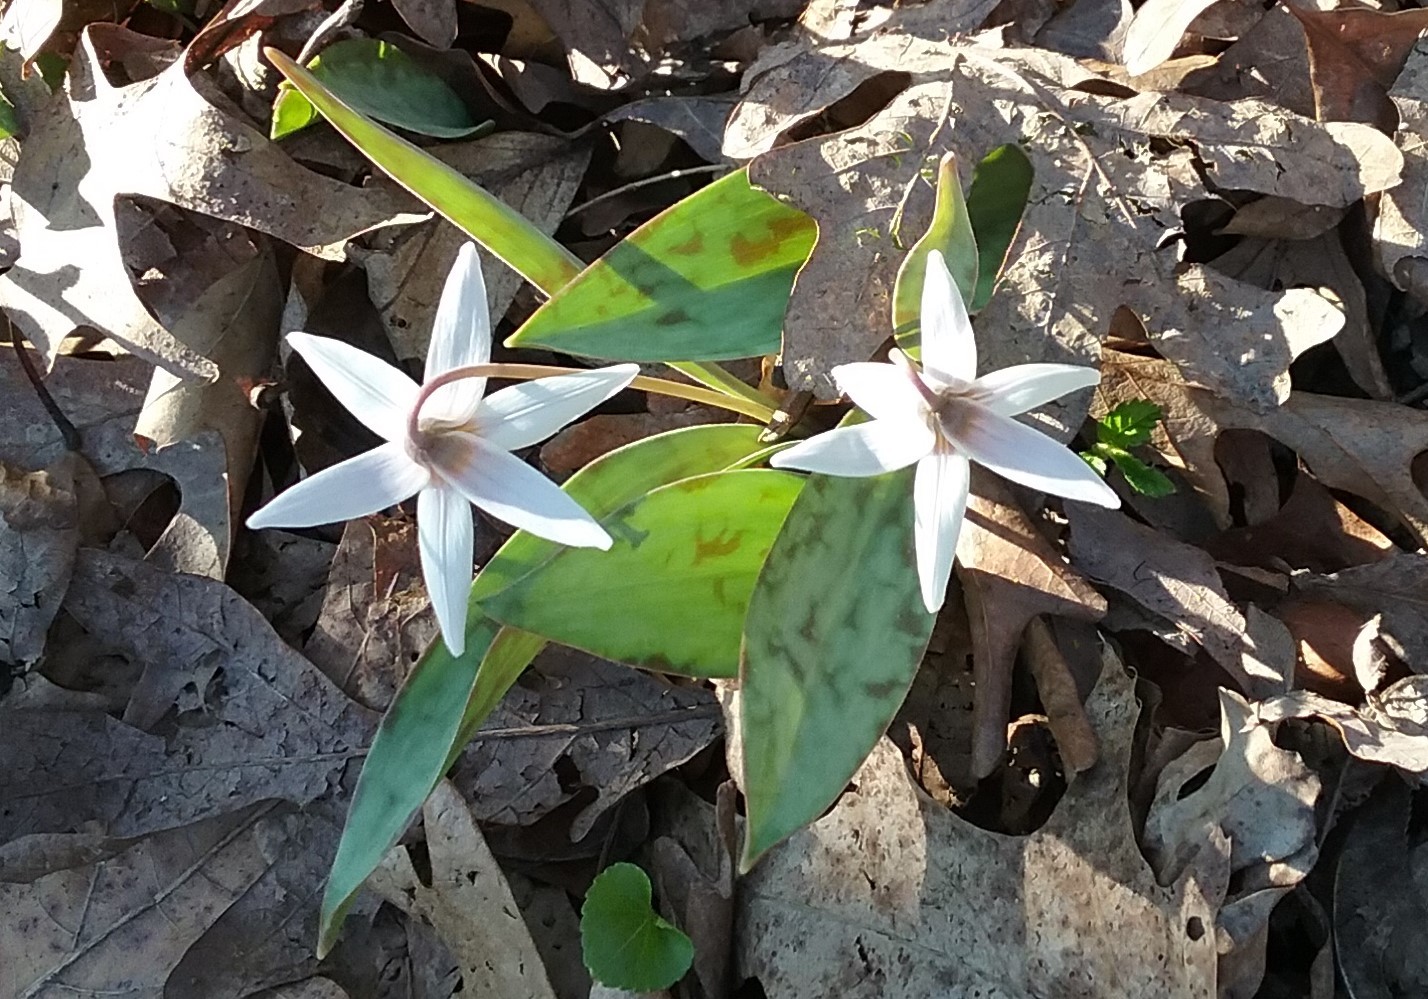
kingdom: Plantae
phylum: Tracheophyta
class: Liliopsida
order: Liliales
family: Liliaceae
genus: Erythronium
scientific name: Erythronium albidum
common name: White trout-lily
